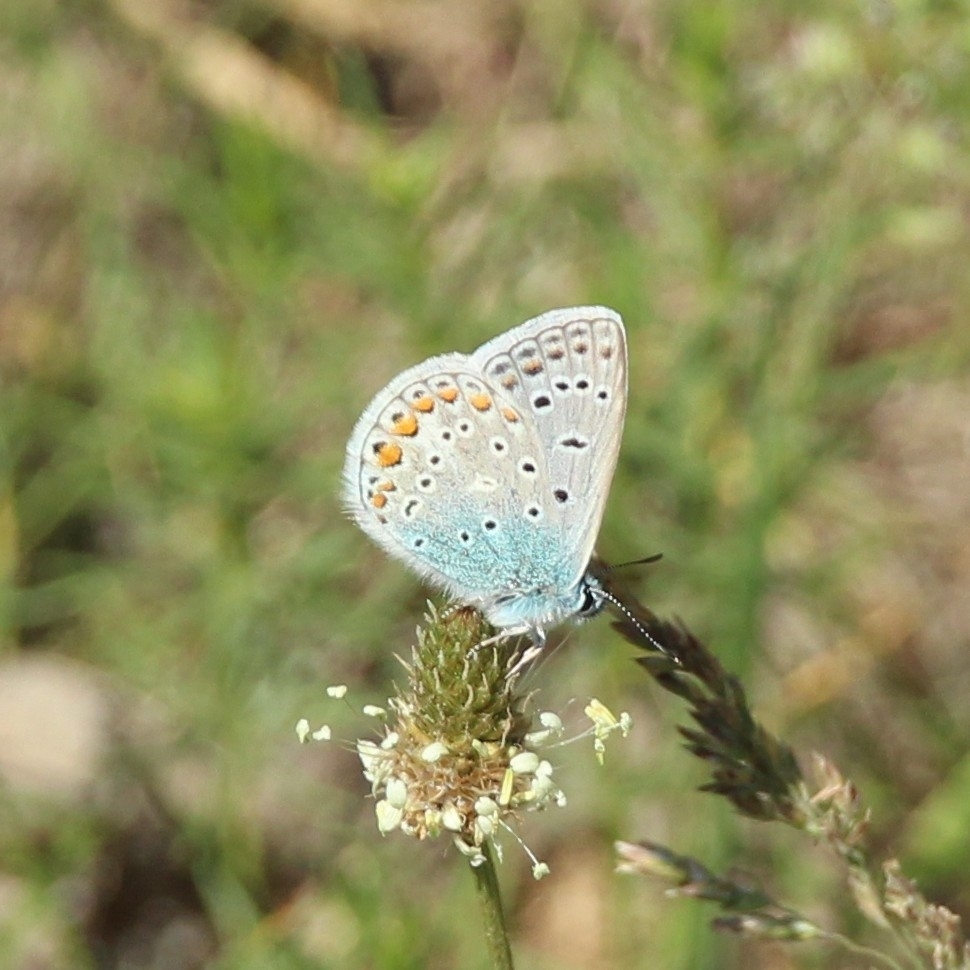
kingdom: Animalia
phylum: Arthropoda
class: Insecta
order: Lepidoptera
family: Lycaenidae
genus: Polyommatus
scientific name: Polyommatus icarus
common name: Common blue
